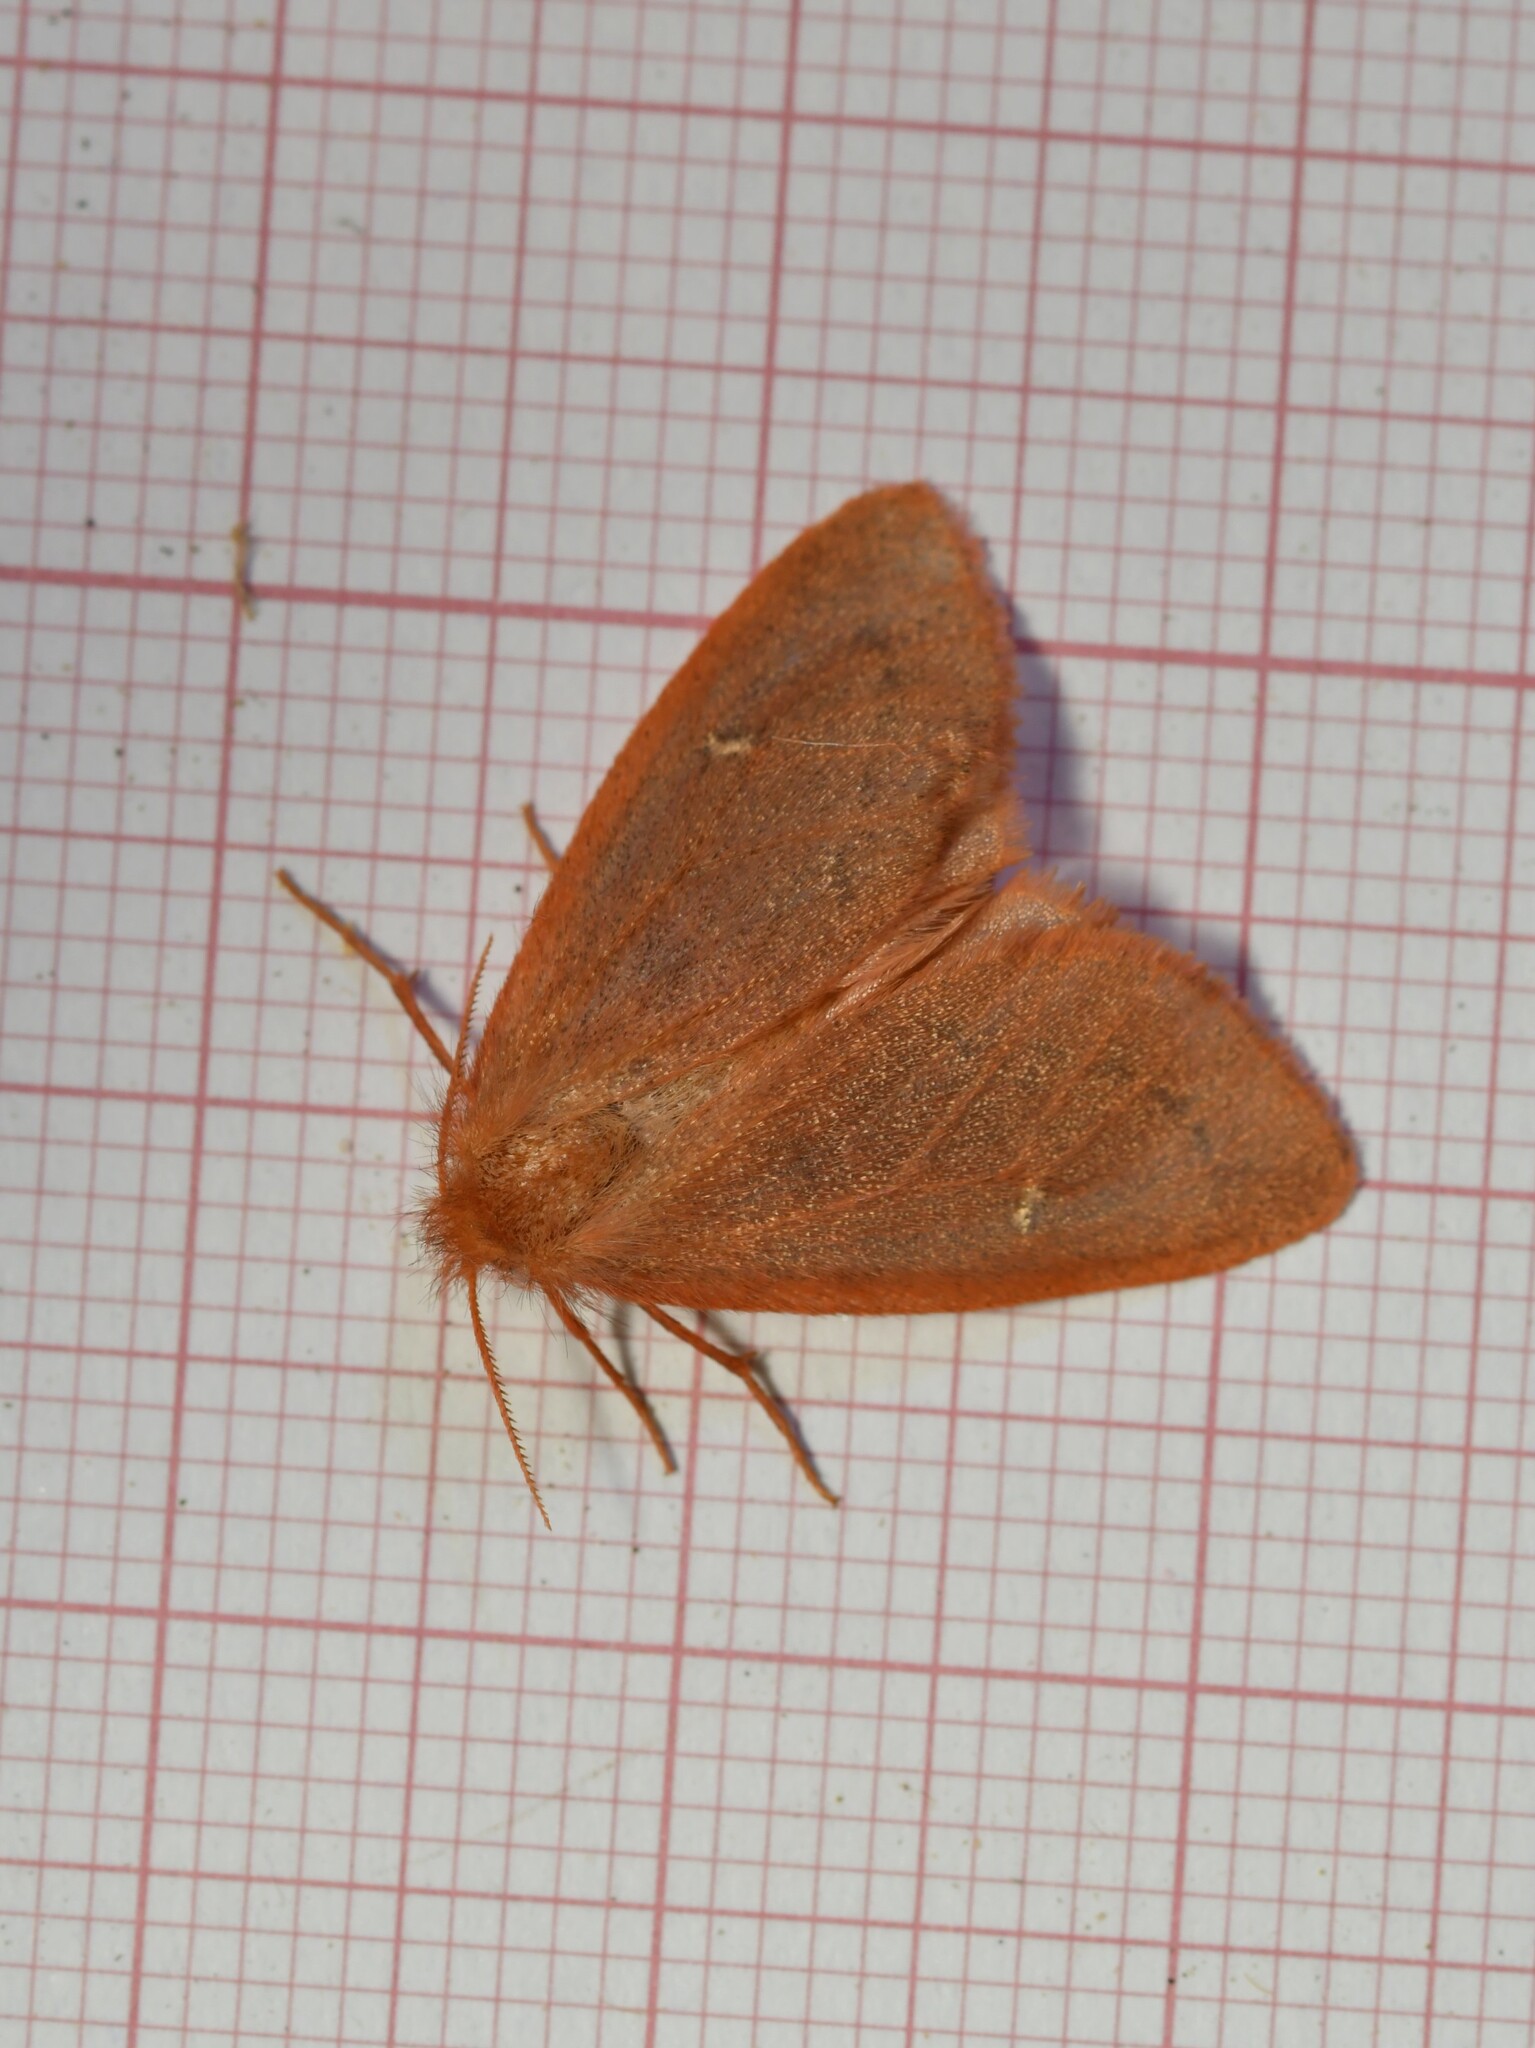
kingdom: Animalia
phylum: Arthropoda
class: Insecta
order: Lepidoptera
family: Erebidae
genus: Ocneria
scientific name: Ocneria rubea
